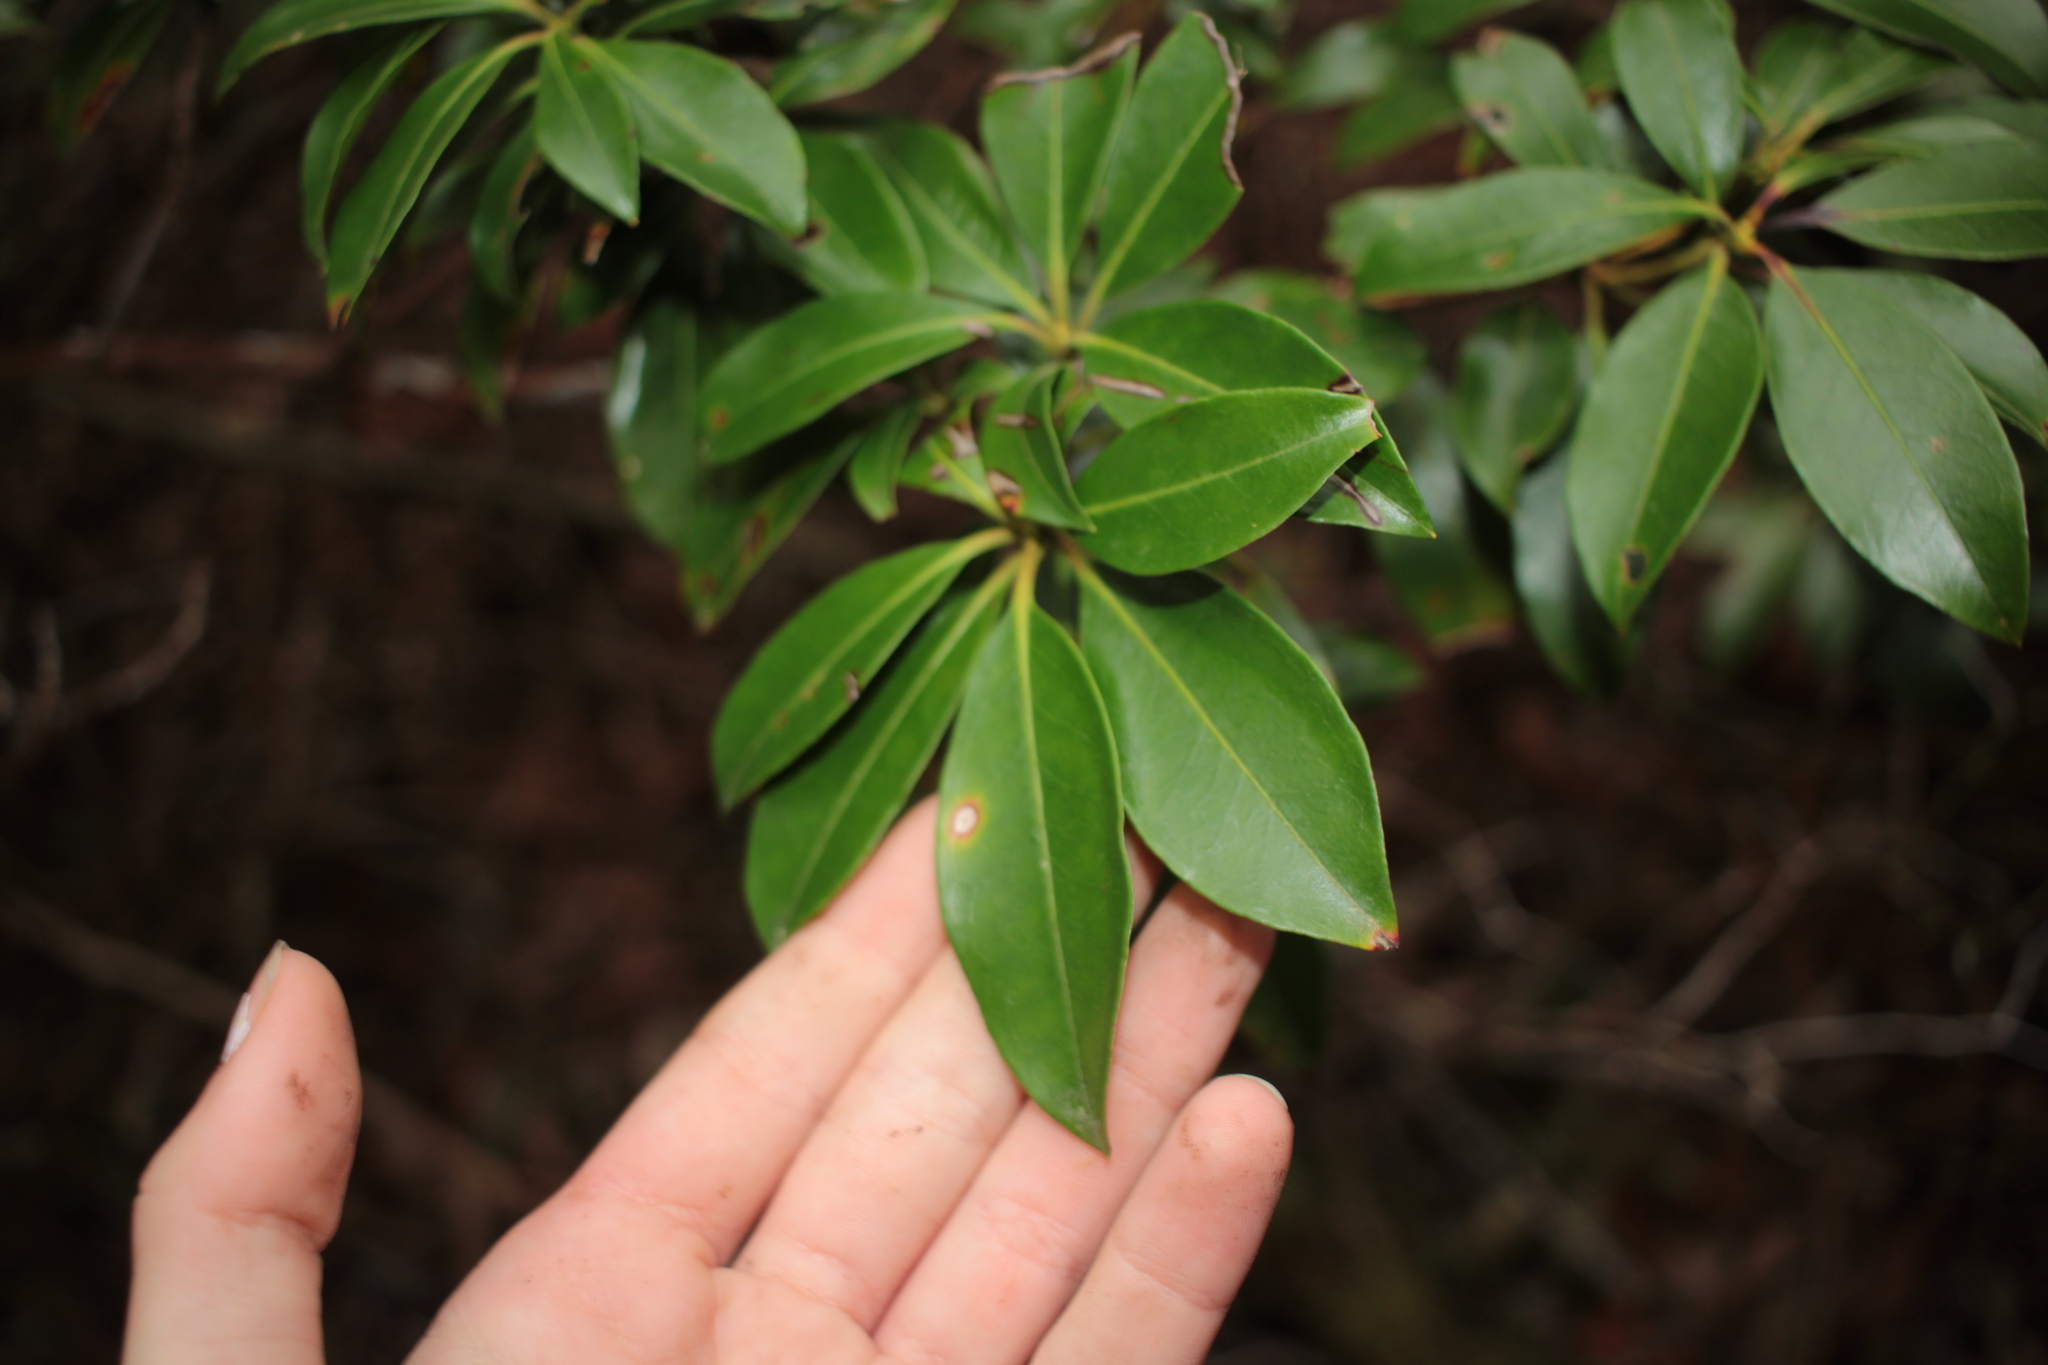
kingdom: Plantae
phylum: Tracheophyta
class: Magnoliopsida
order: Ericales
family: Ericaceae
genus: Kalmia
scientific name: Kalmia latifolia
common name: Mountain-laurel
